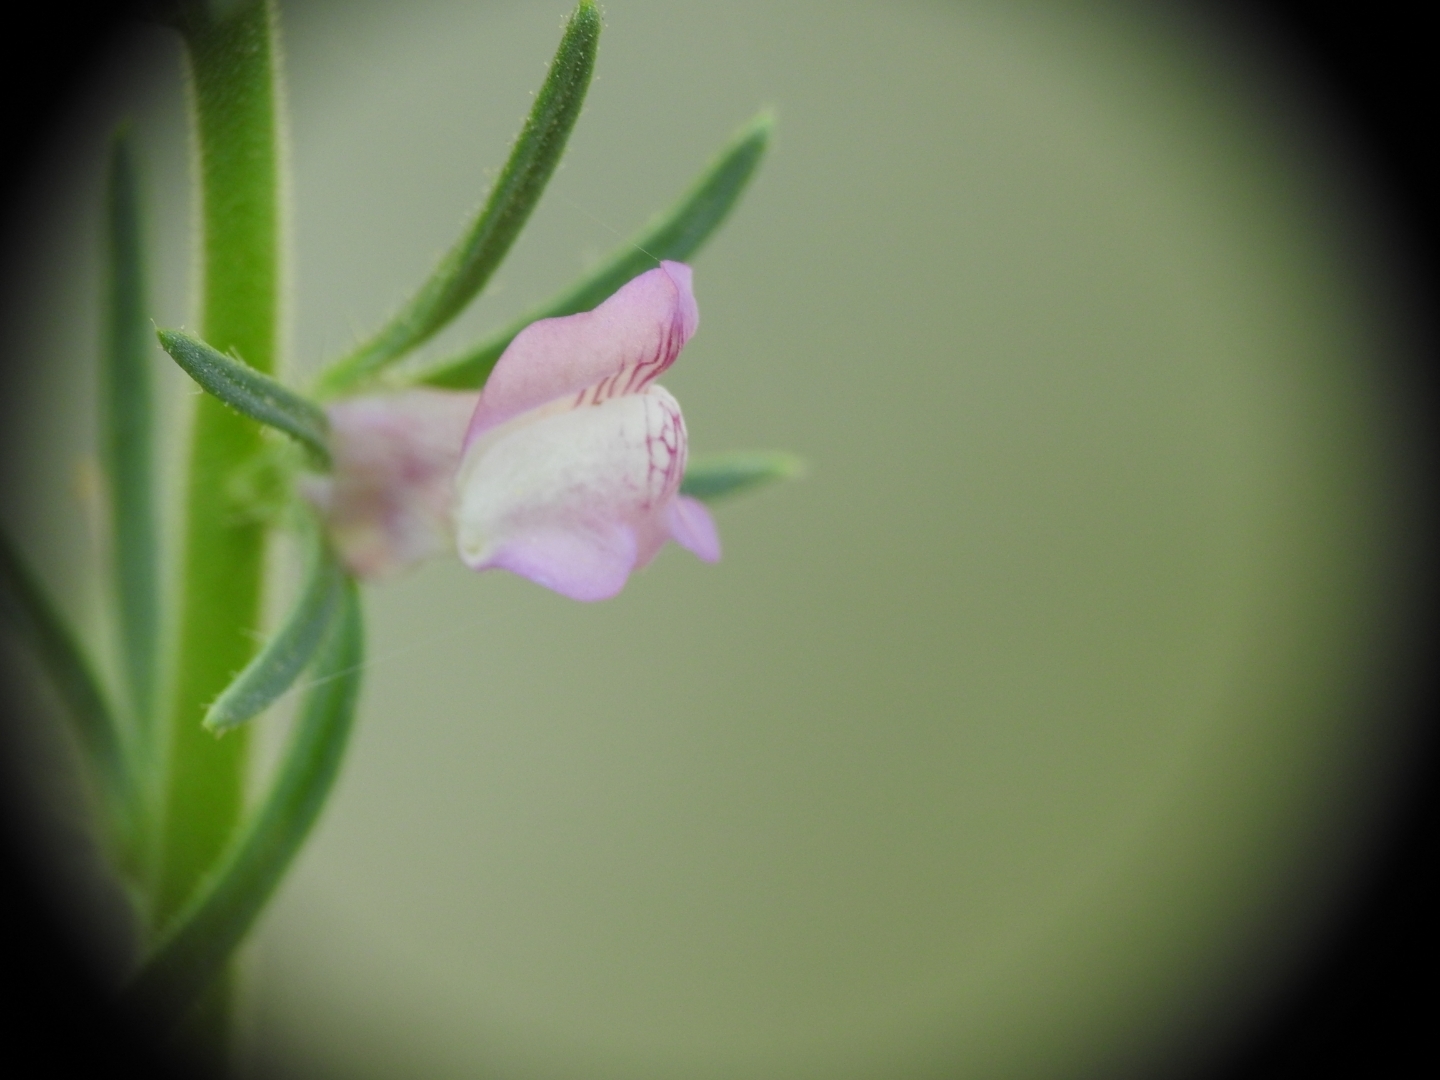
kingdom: Plantae
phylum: Tracheophyta
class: Magnoliopsida
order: Lamiales
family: Plantaginaceae
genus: Misopates
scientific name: Misopates orontium
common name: Weasel's-snout
